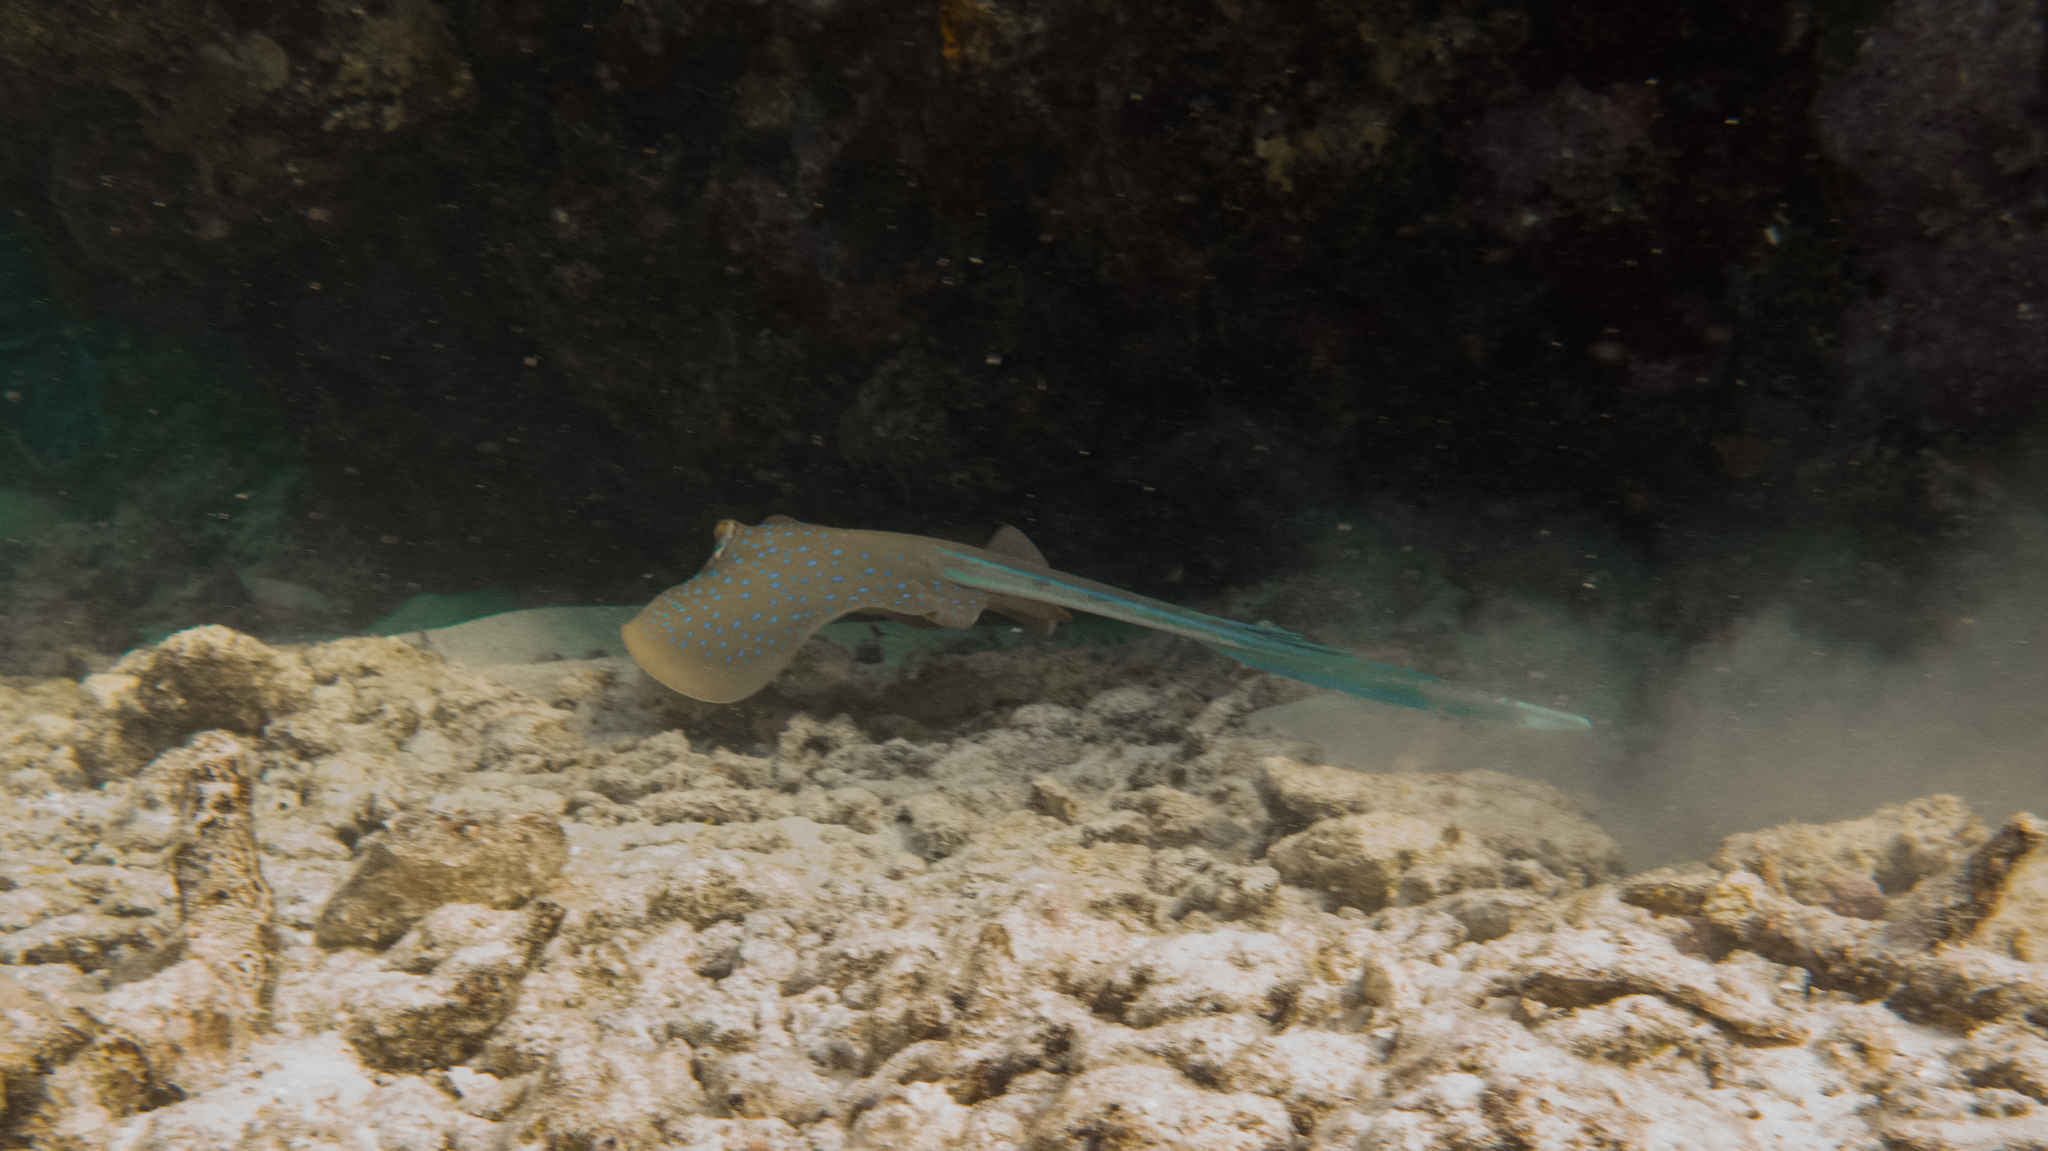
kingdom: Animalia
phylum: Chordata
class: Elasmobranchii
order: Myliobatiformes
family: Dasyatidae
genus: Taeniura
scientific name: Taeniura lymma
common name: Bluespotted ribbontail ray
